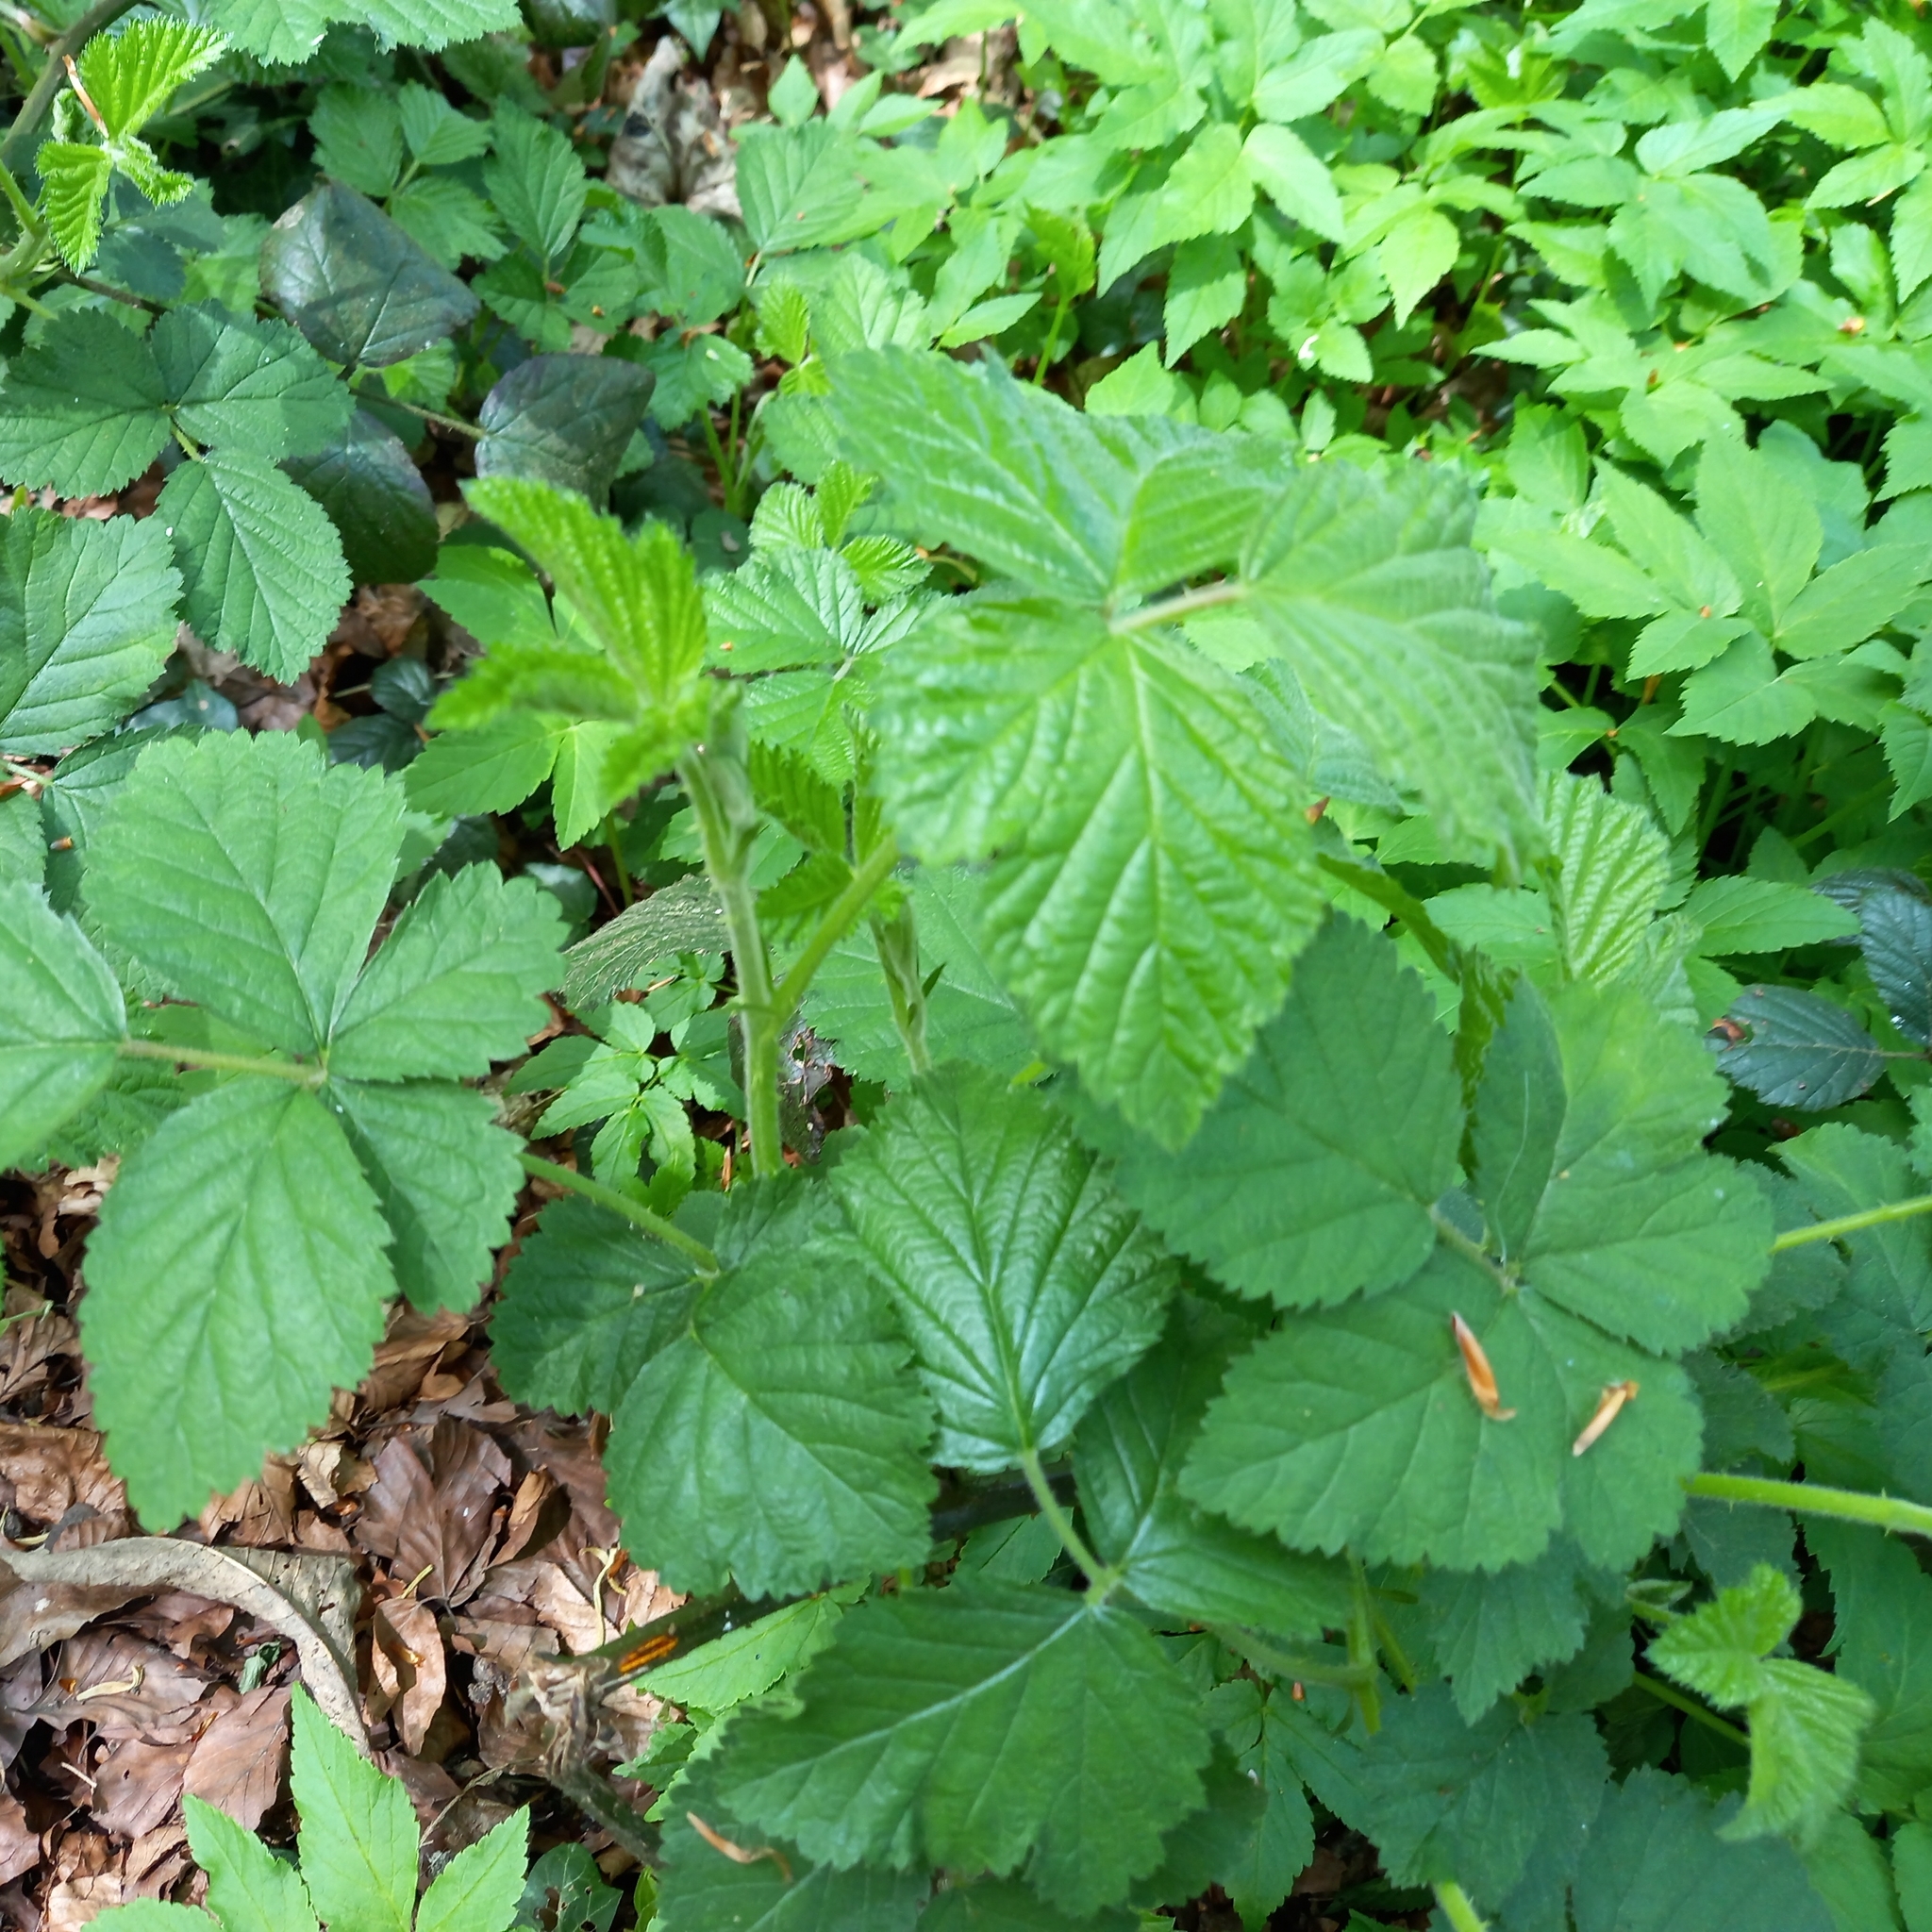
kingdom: Plantae
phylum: Tracheophyta
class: Magnoliopsida
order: Rosales
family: Rosaceae
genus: Rubus
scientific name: Rubus fruticosus
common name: Blackberry, bramble
